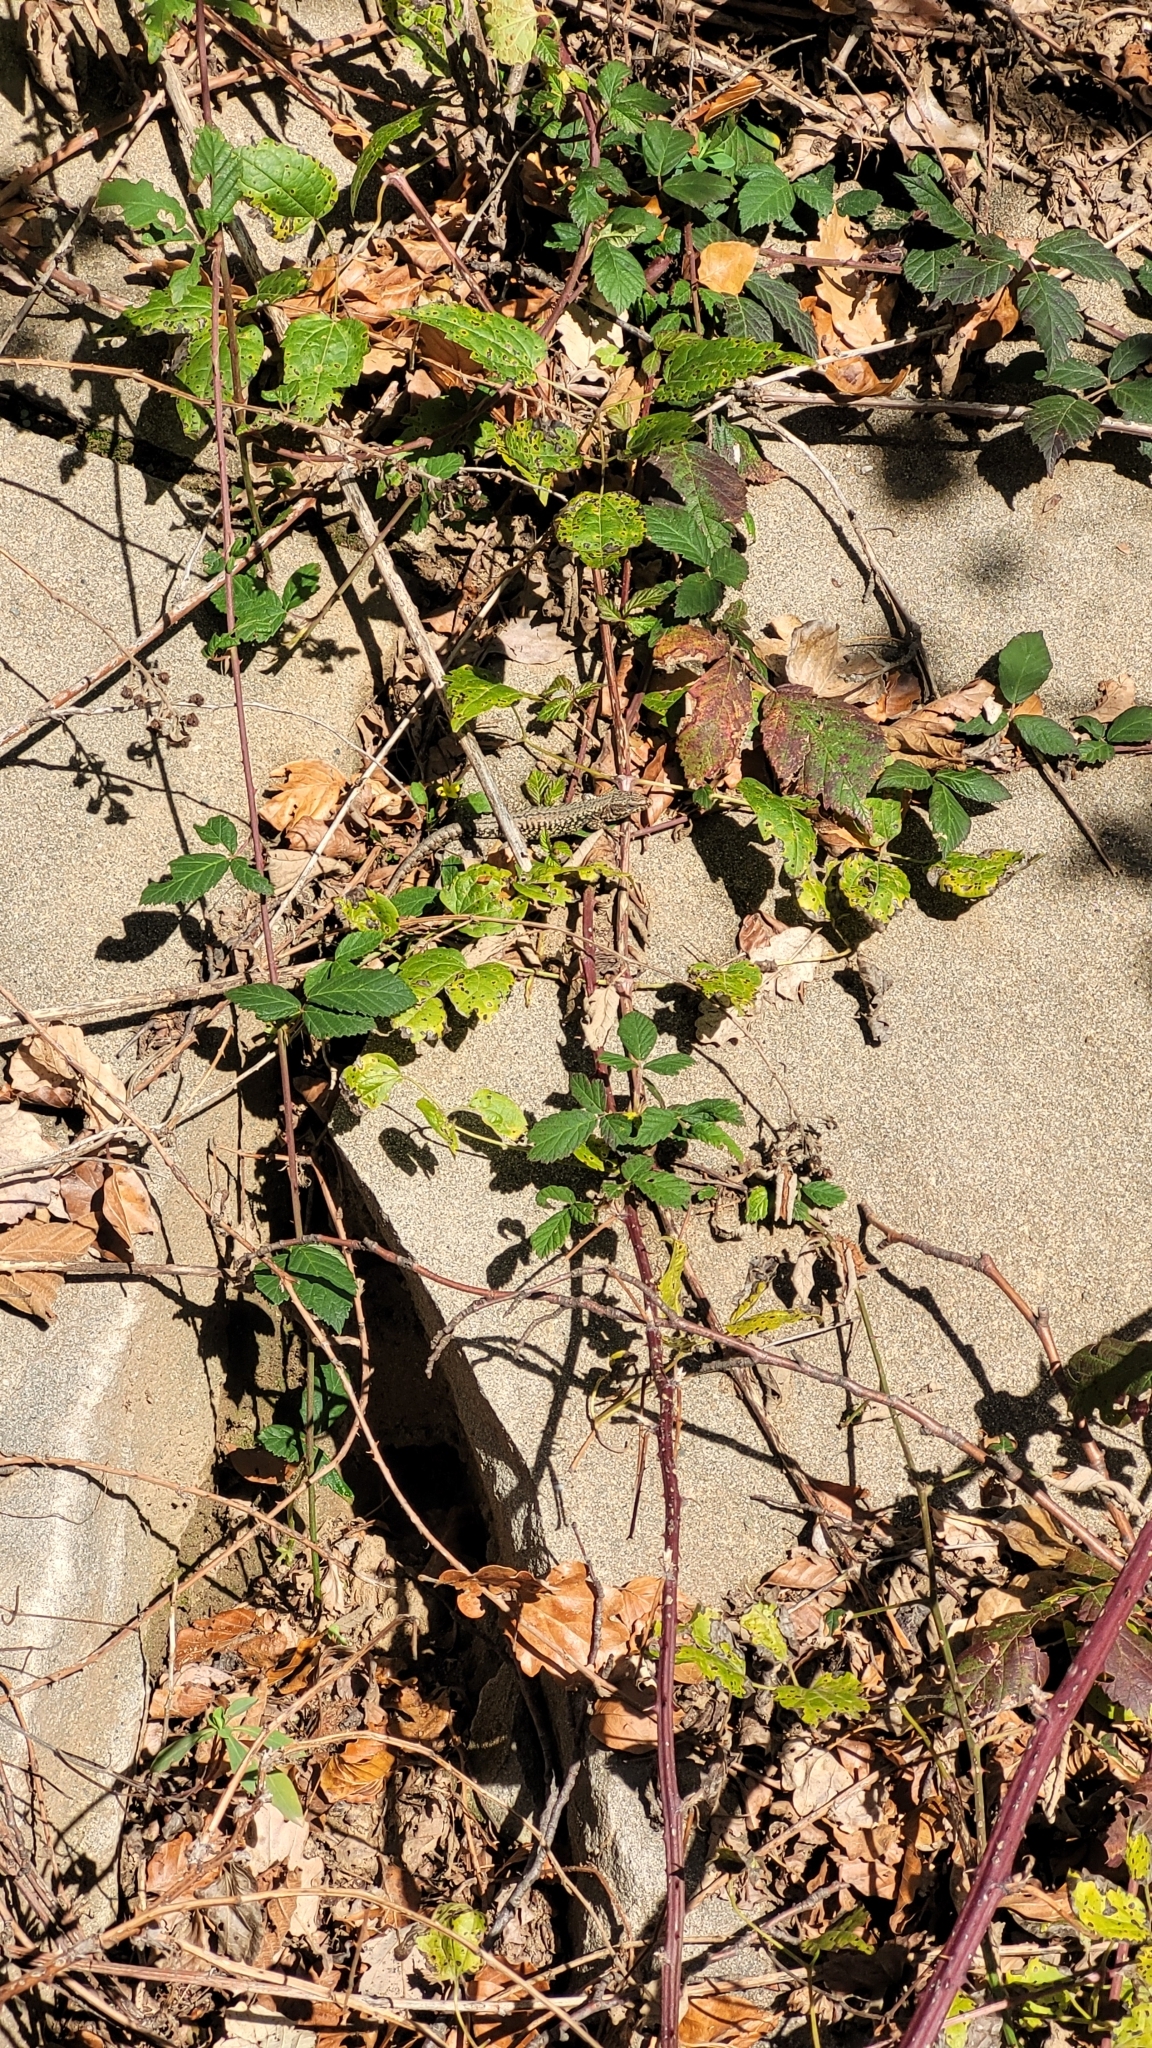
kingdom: Animalia
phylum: Chordata
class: Squamata
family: Lacertidae
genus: Podarcis
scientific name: Podarcis muralis
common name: Common wall lizard
